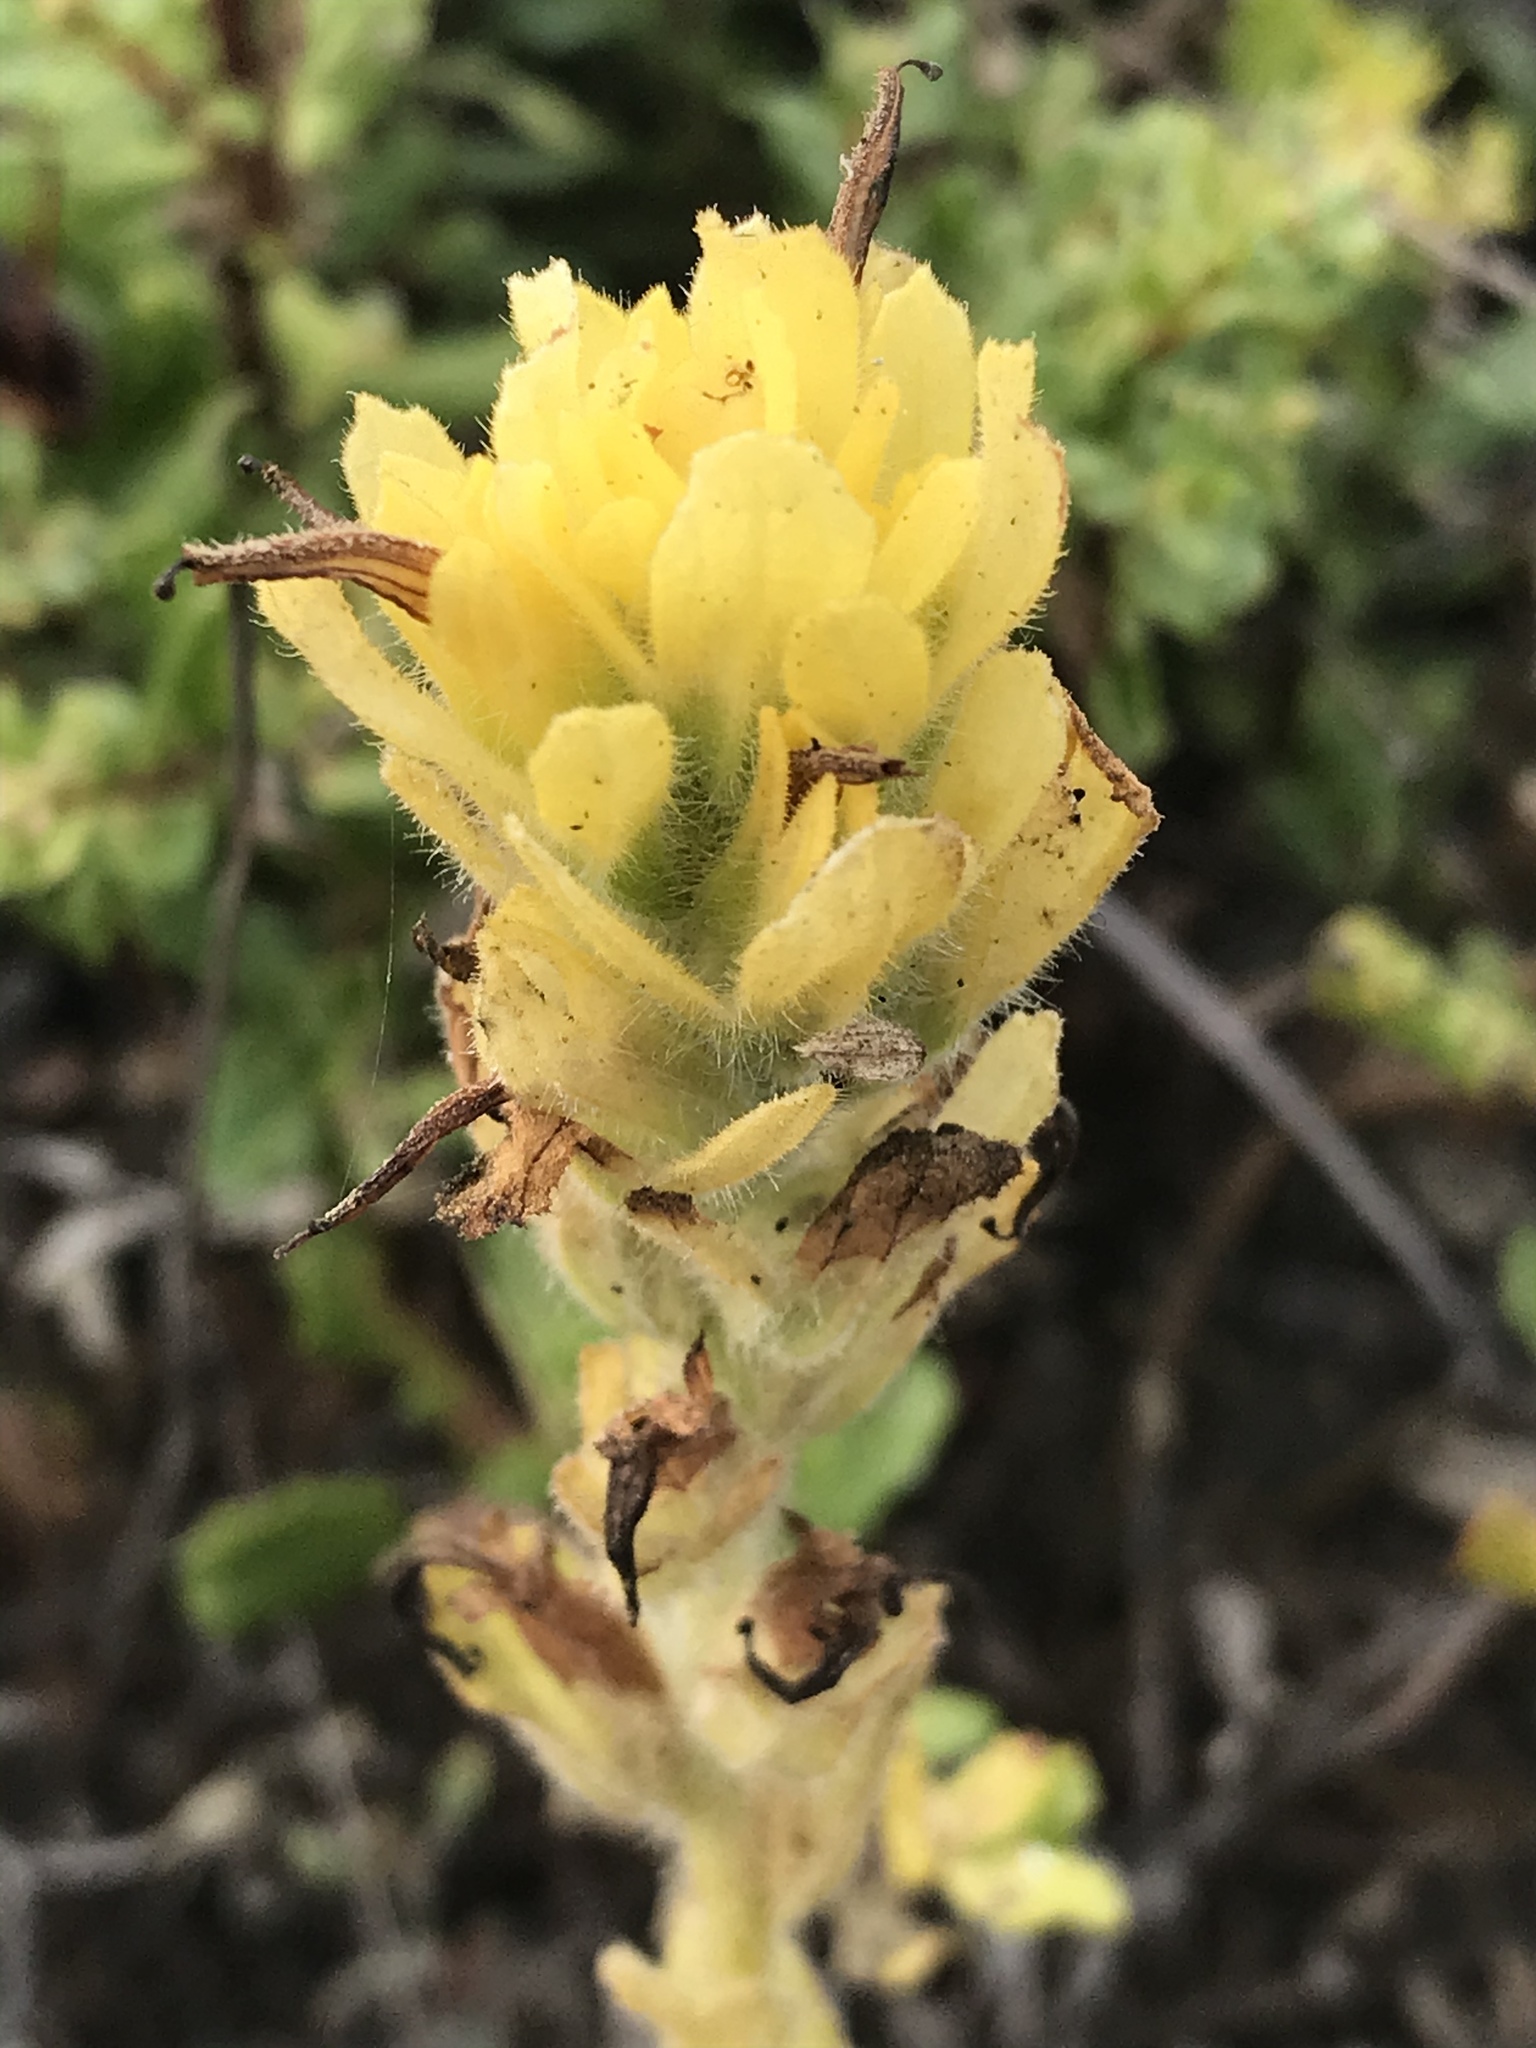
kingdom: Plantae
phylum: Tracheophyta
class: Magnoliopsida
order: Lamiales
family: Orobanchaceae
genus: Castilleja
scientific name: Castilleja wightii
